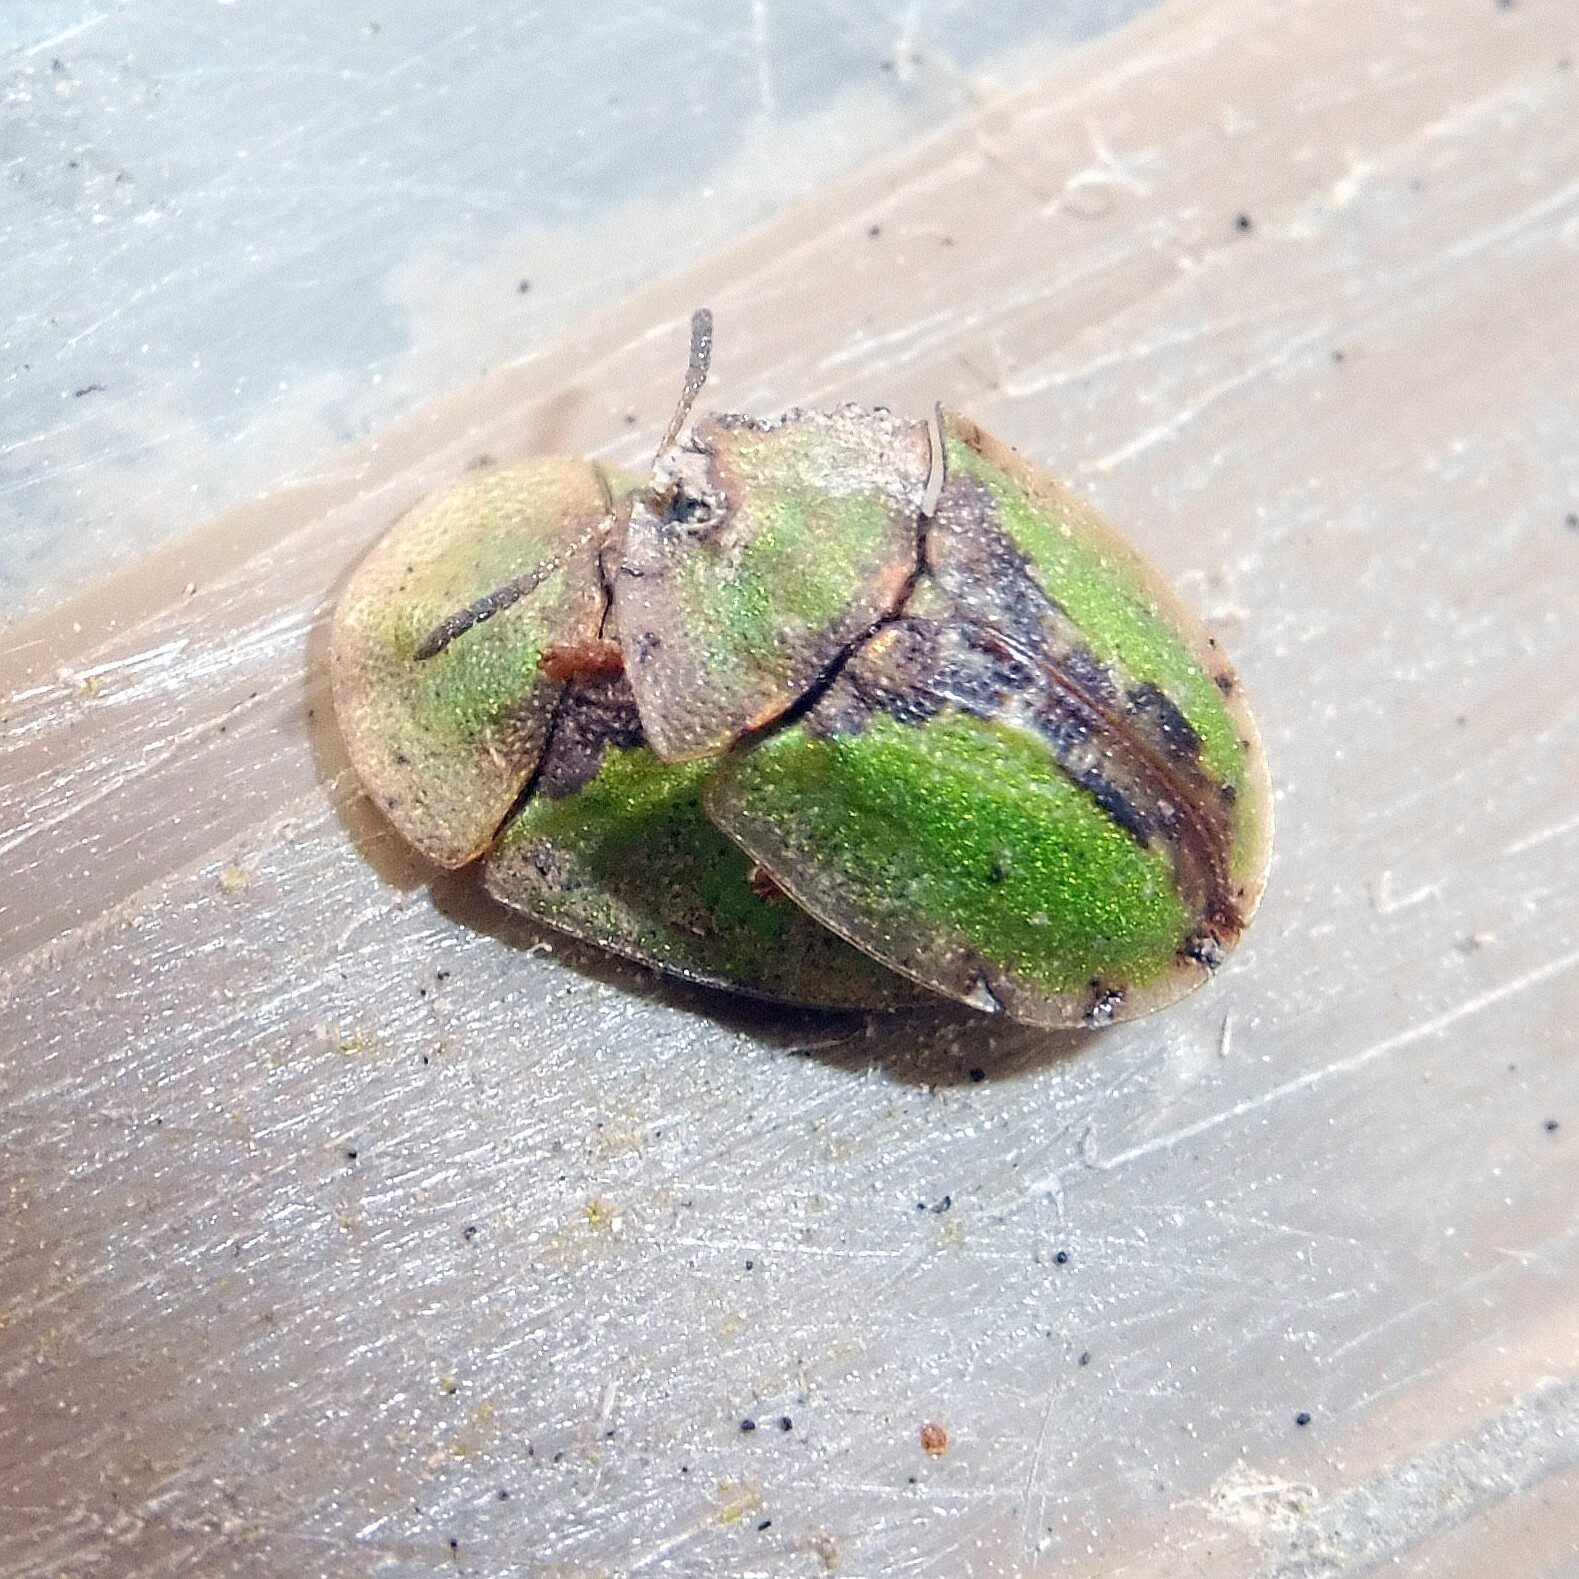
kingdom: Animalia
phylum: Arthropoda
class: Insecta
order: Coleoptera
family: Chrysomelidae
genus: Cassida
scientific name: Cassida vibex
